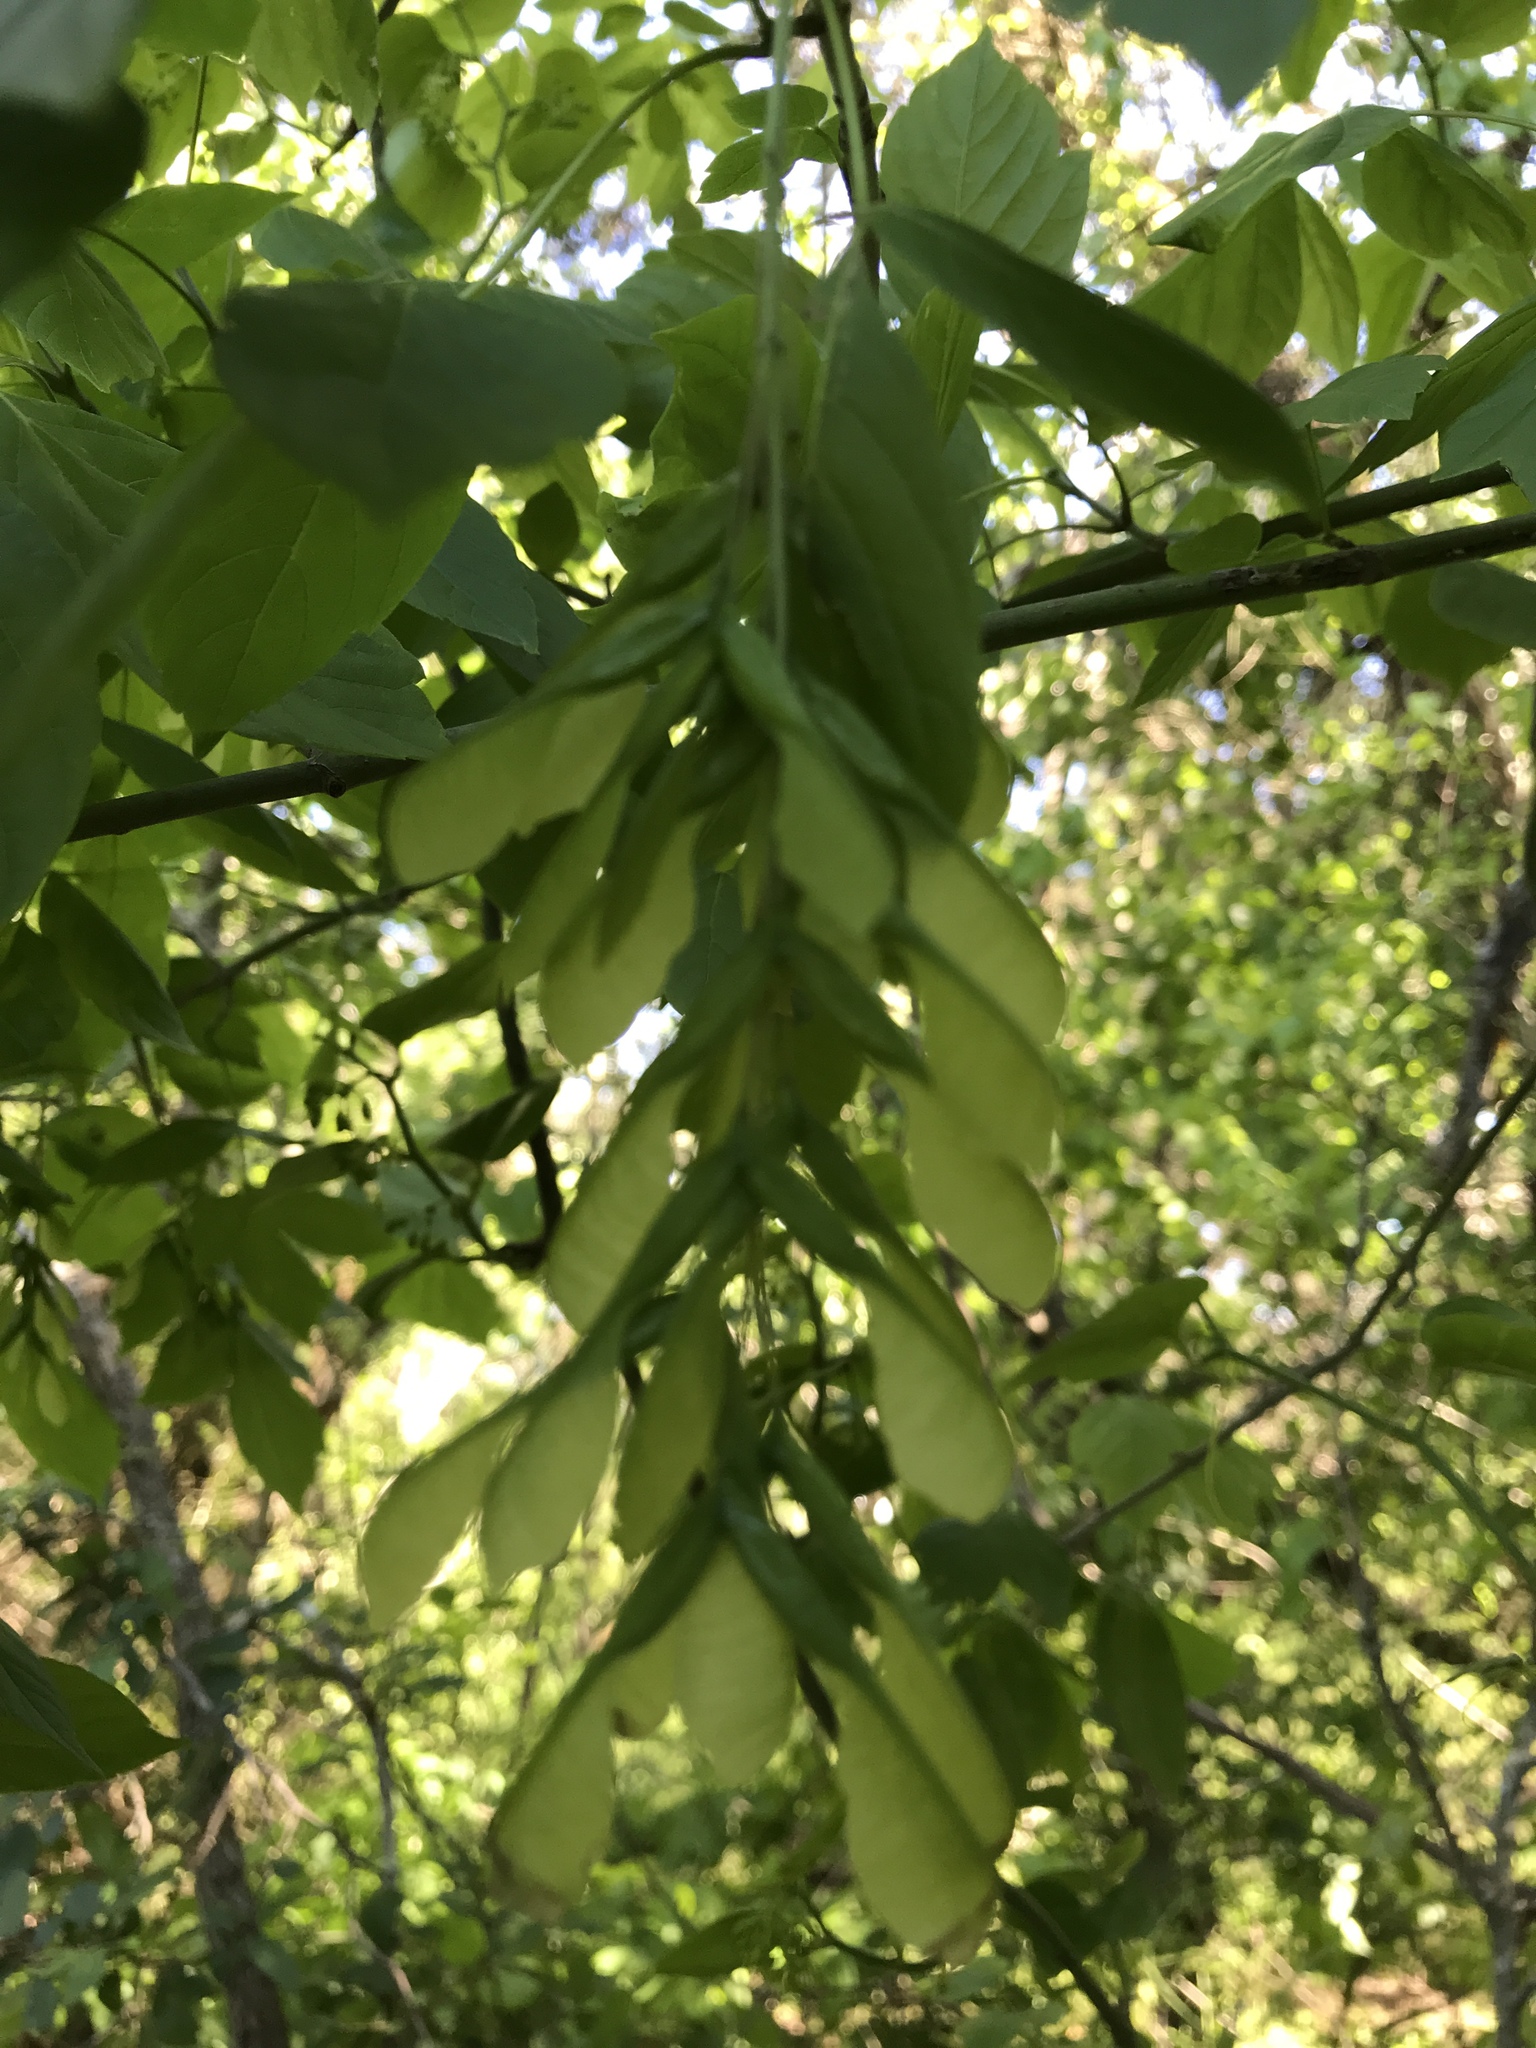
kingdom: Plantae
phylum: Tracheophyta
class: Magnoliopsida
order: Sapindales
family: Sapindaceae
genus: Acer
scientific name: Acer negundo
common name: Ashleaf maple
